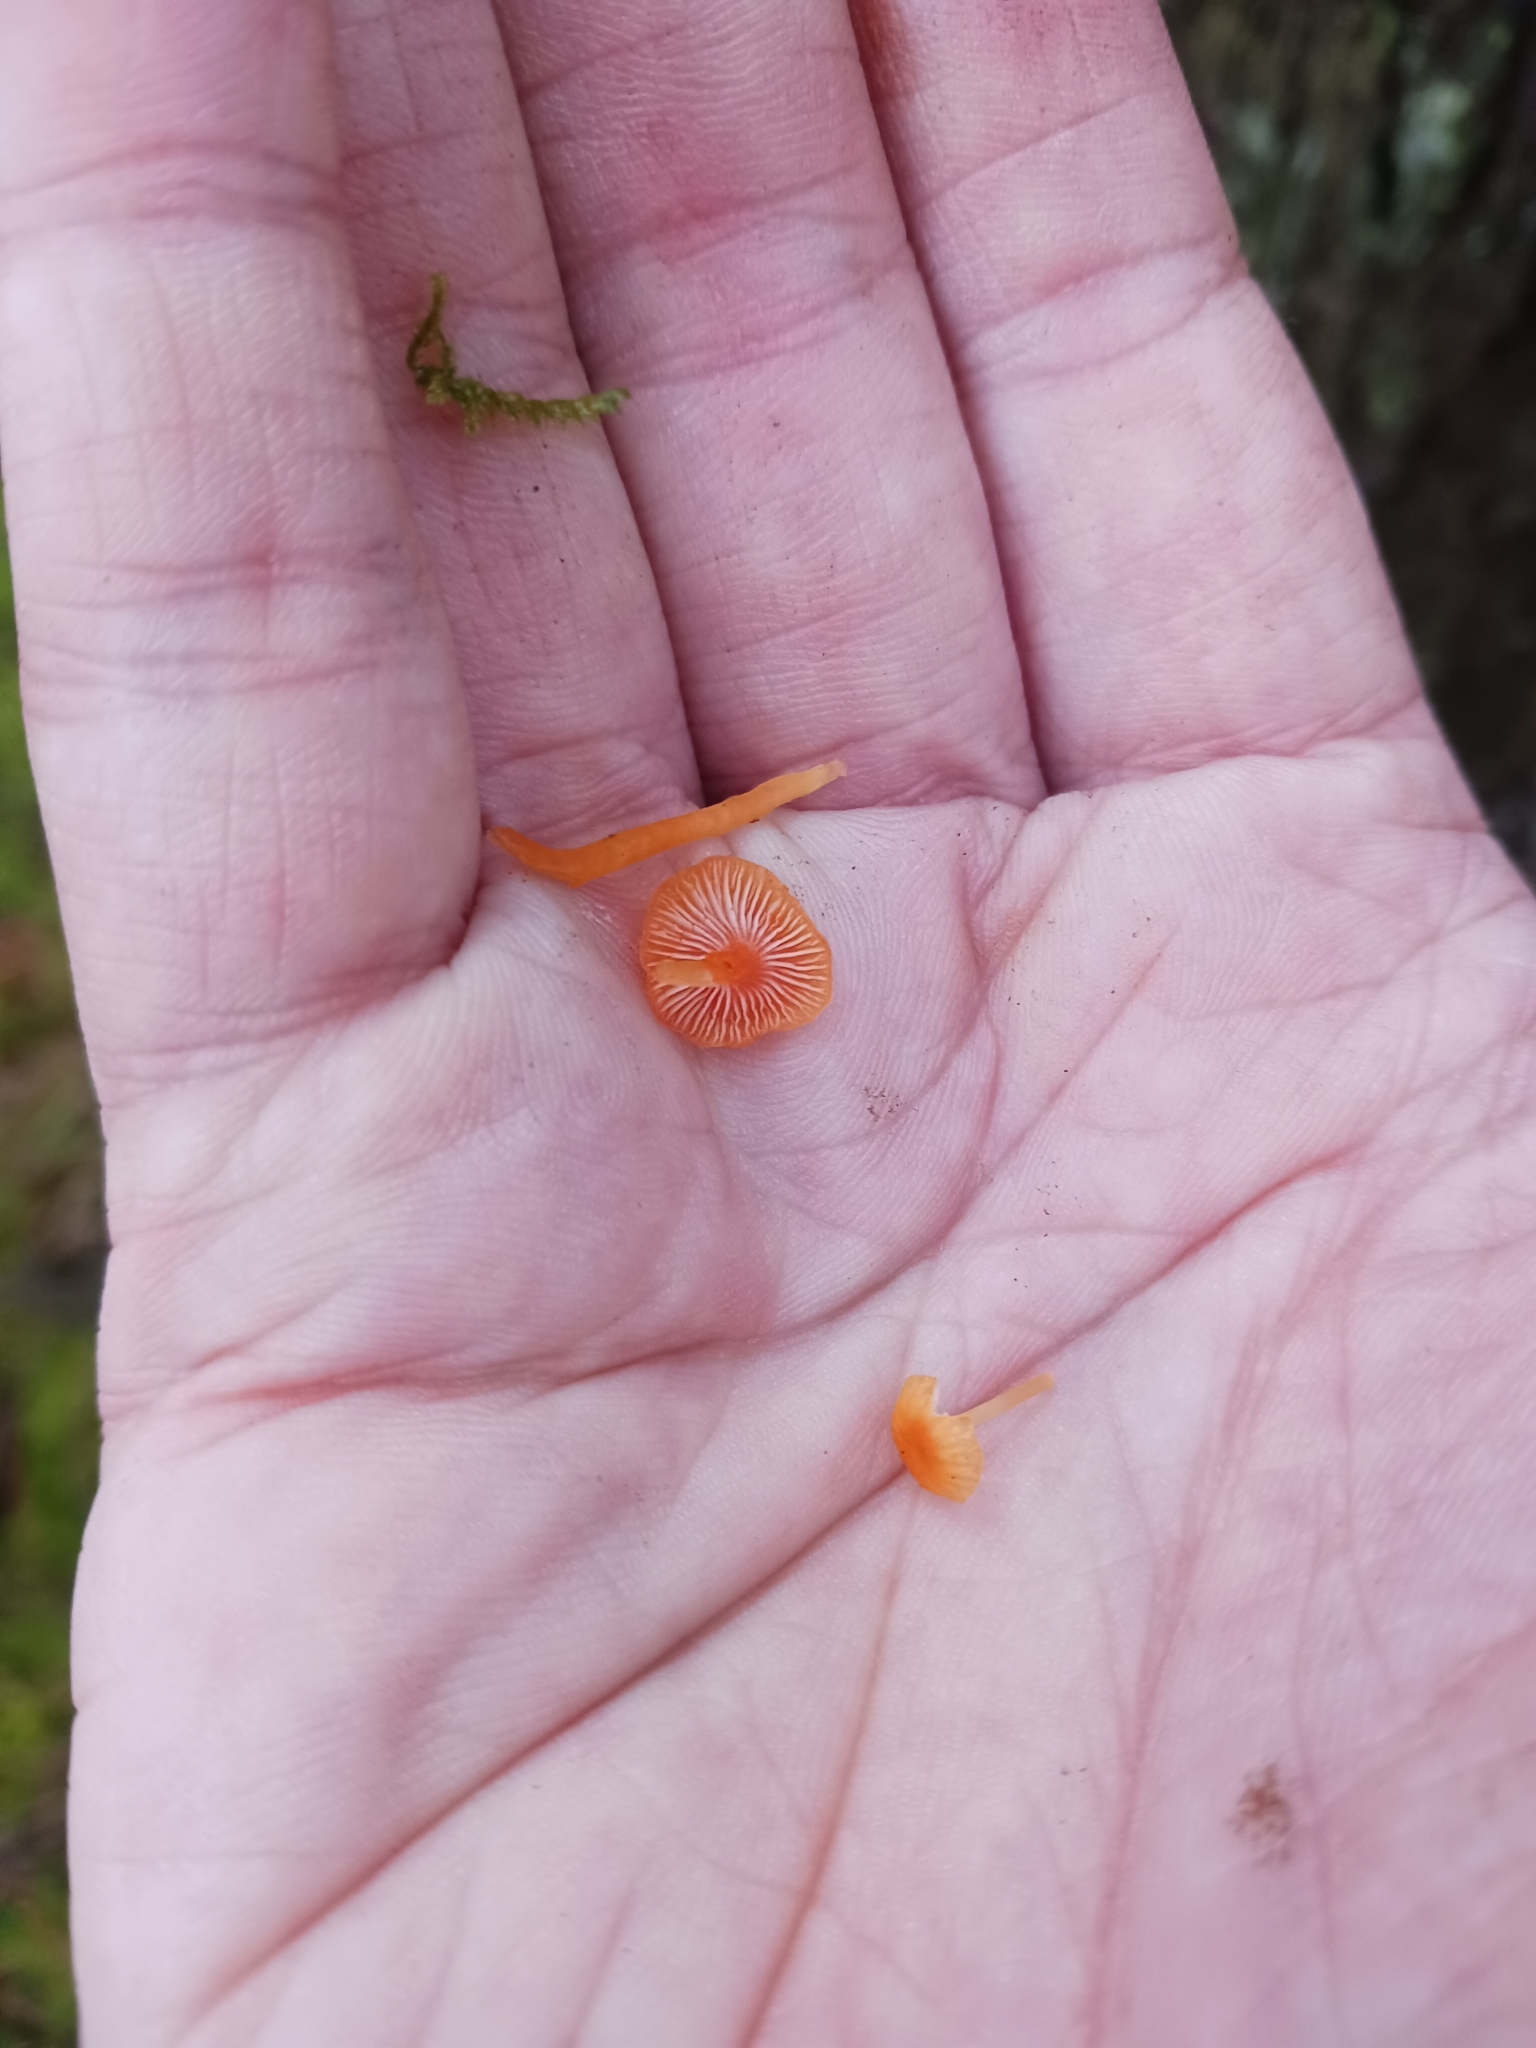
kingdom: Fungi
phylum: Basidiomycota
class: Agaricomycetes
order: Hymenochaetales
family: Rickenellaceae
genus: Rickenella
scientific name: Rickenella fibula
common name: Orange mosscap
